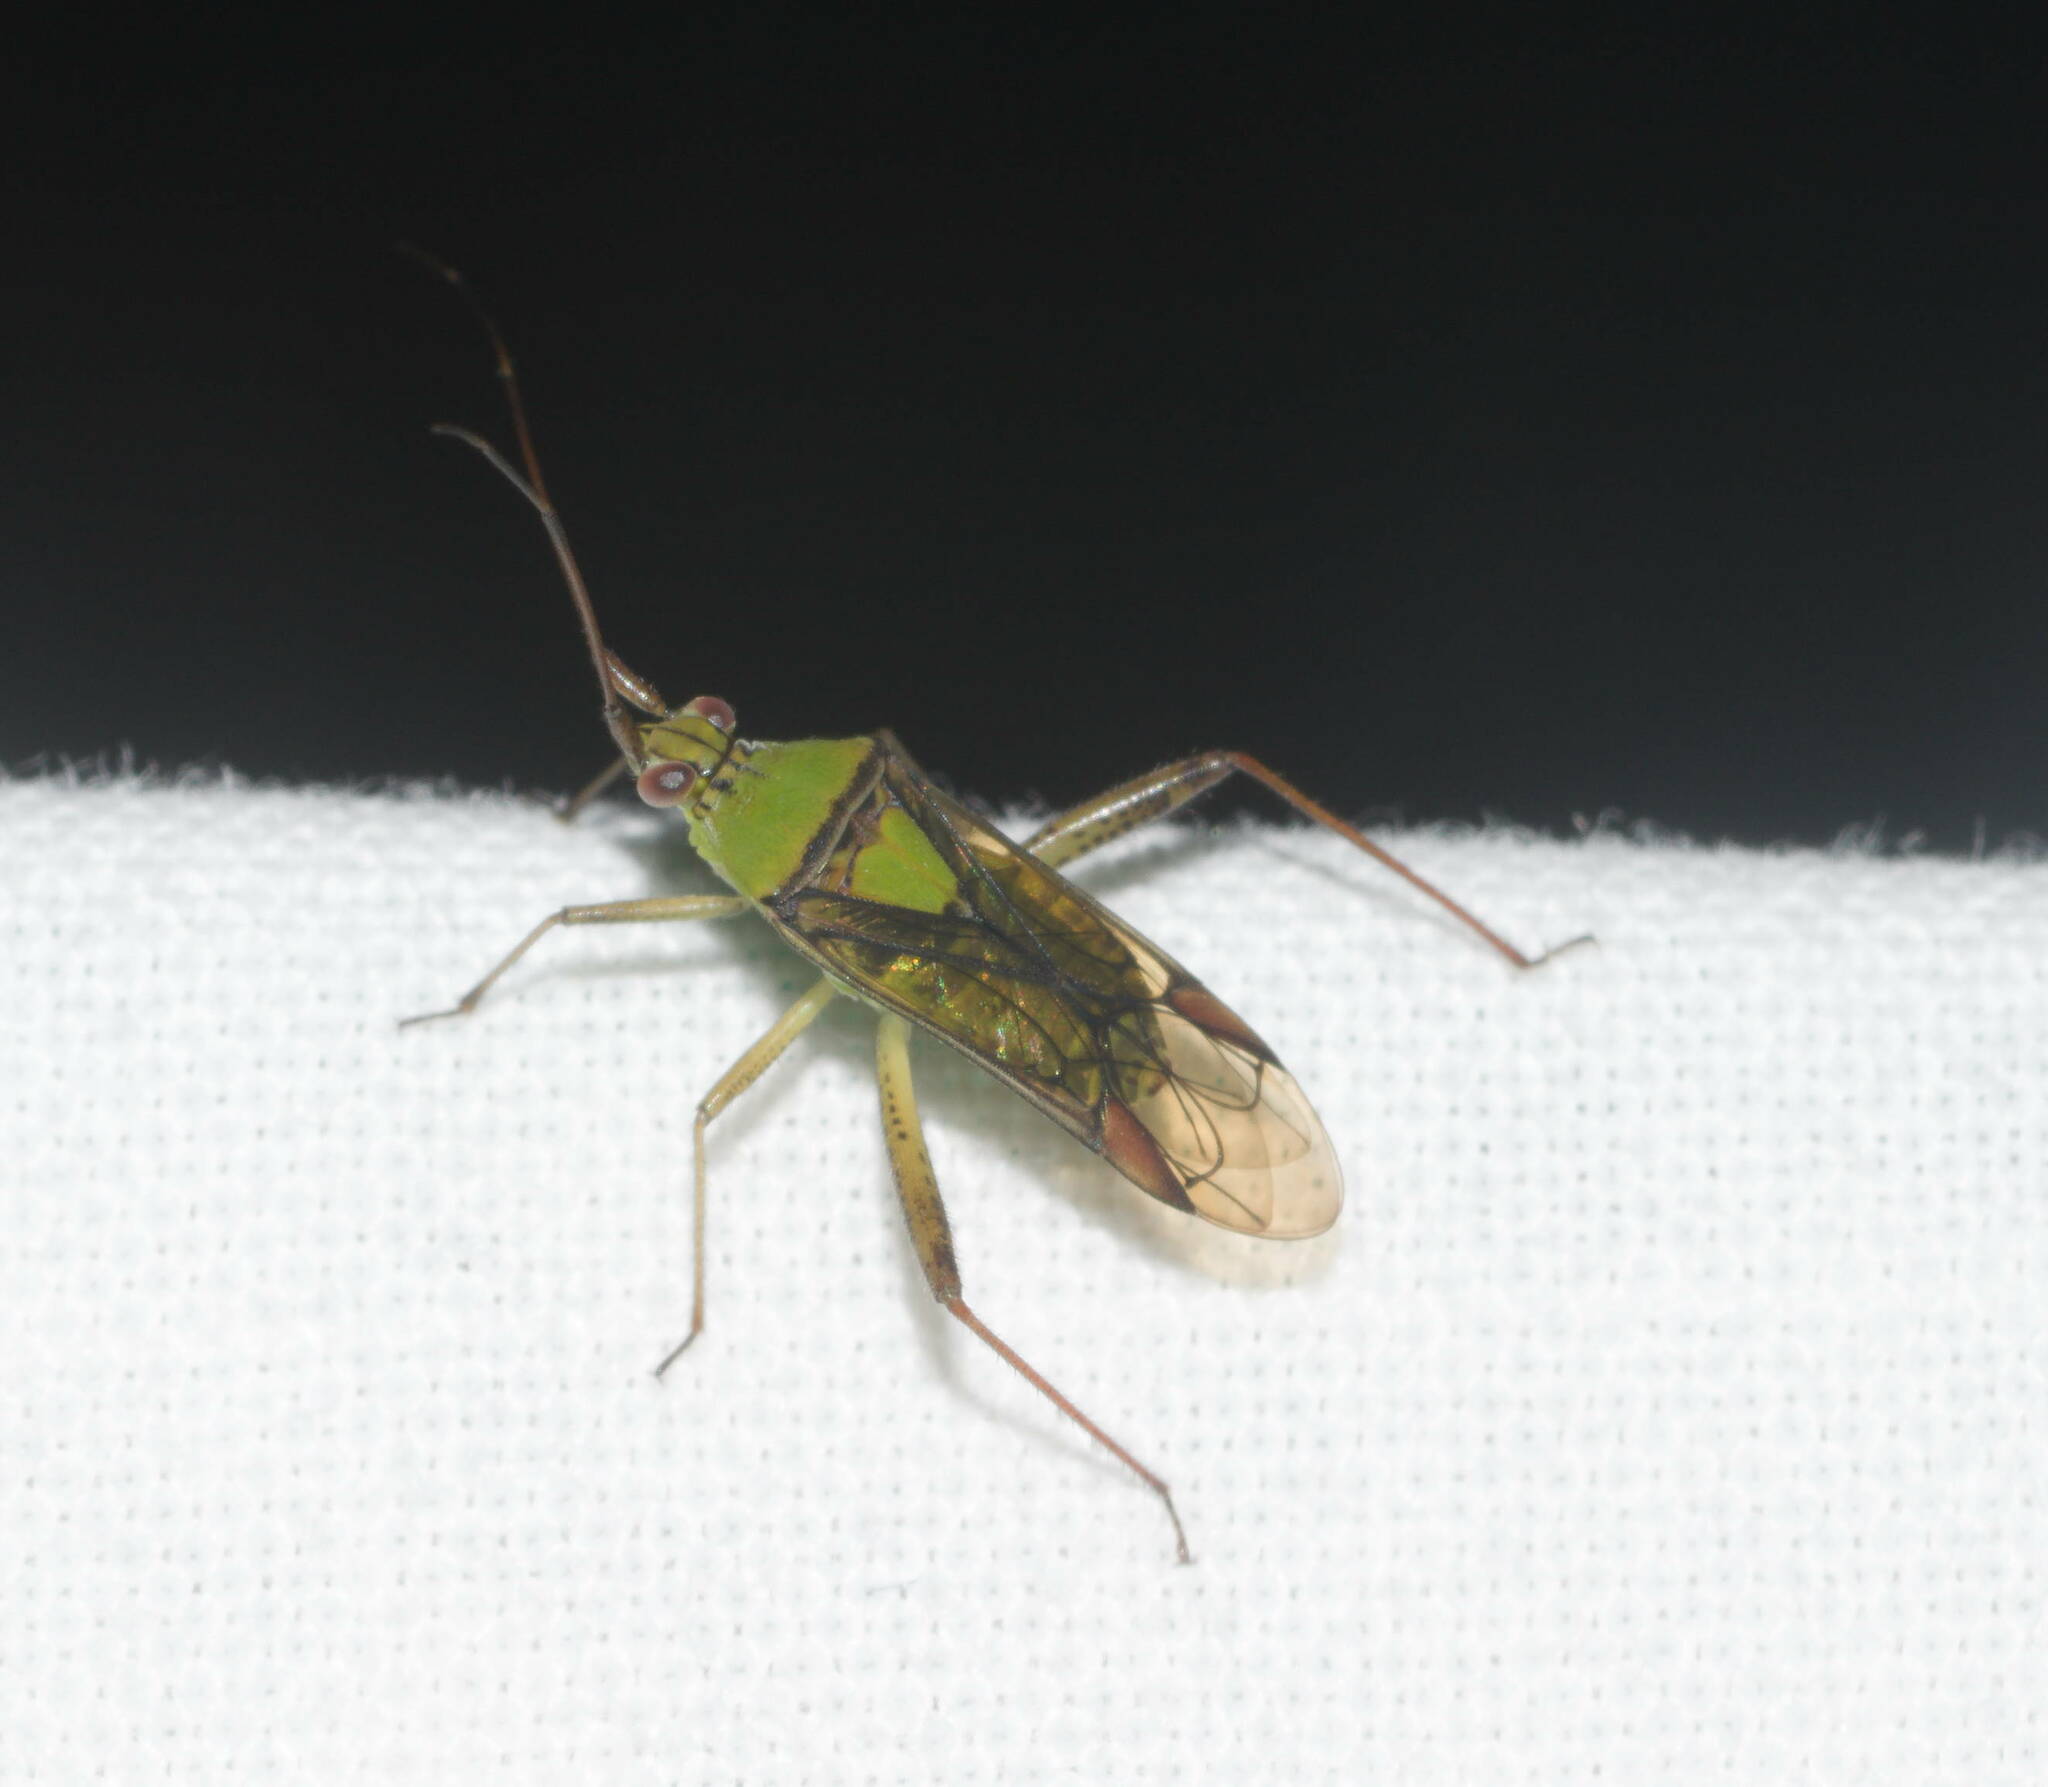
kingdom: Animalia
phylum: Arthropoda
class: Insecta
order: Hemiptera
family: Miridae
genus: Hyalopeplus
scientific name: Hyalopeplus pellucidus
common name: Plant bug
